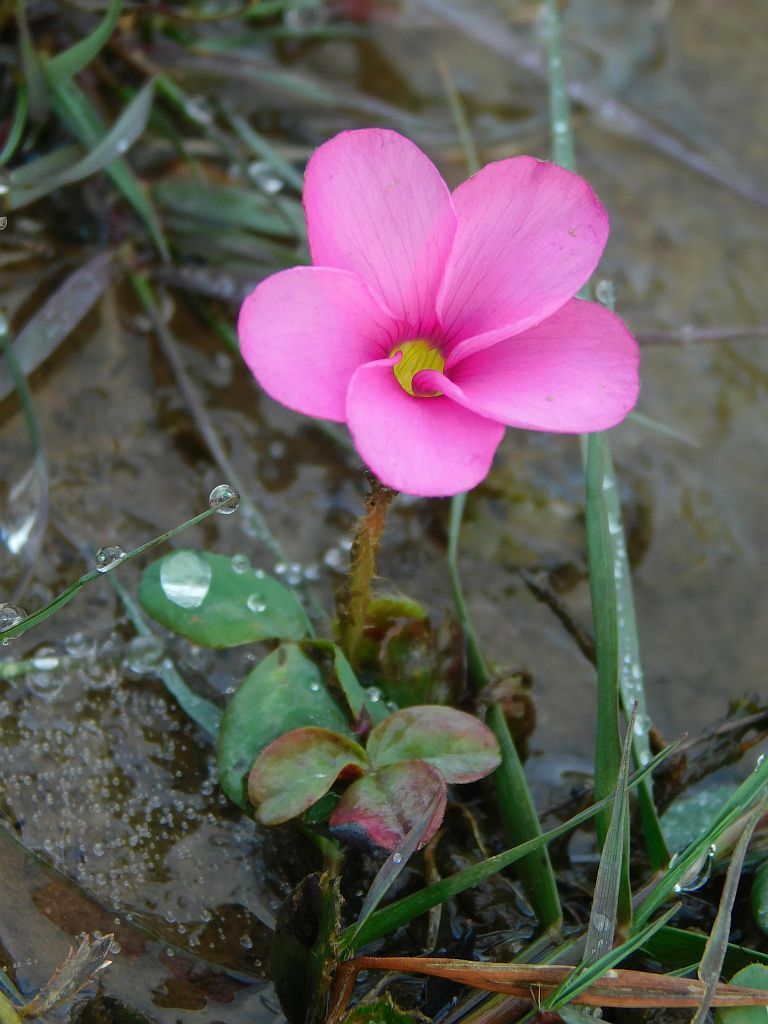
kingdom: Plantae
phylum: Tracheophyta
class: Magnoliopsida
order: Oxalidales
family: Oxalidaceae
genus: Oxalis
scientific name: Oxalis eckloniana
